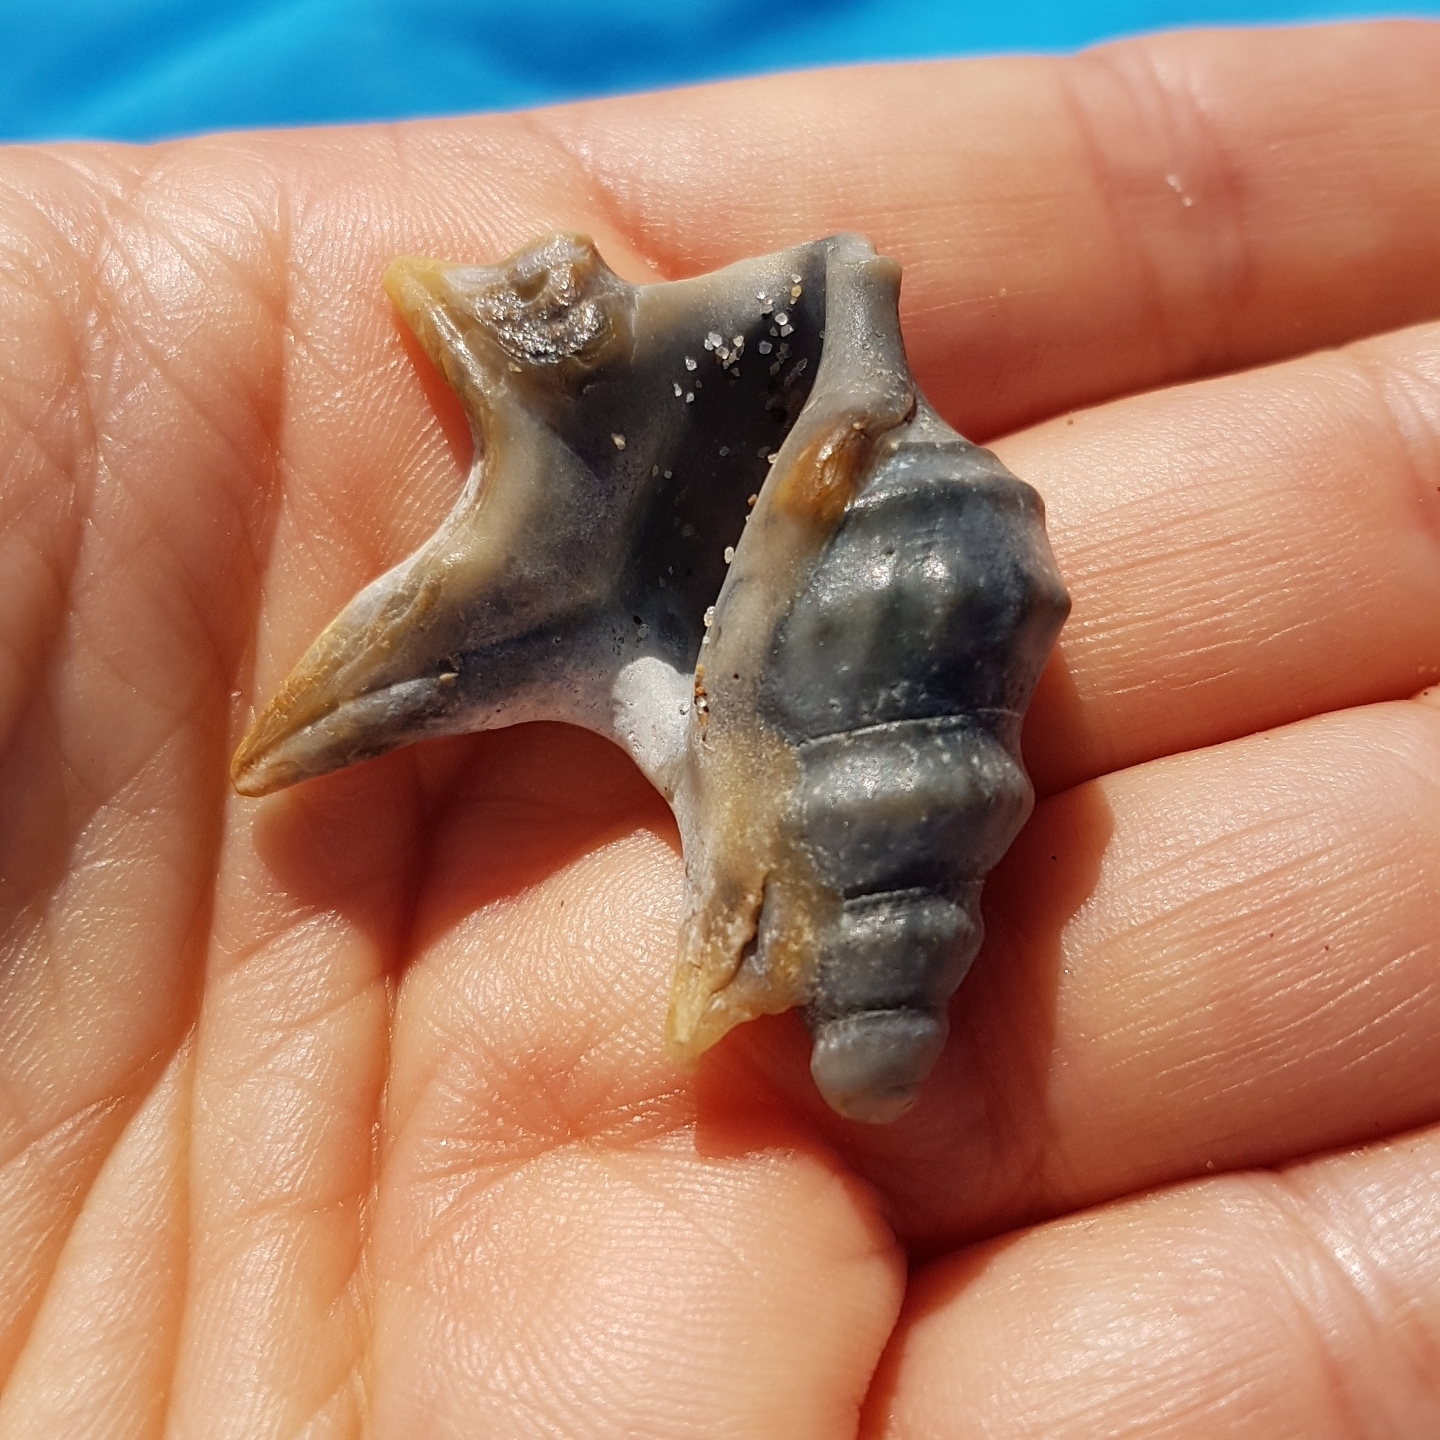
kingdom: Animalia
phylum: Mollusca
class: Gastropoda
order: Littorinimorpha
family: Aporrhaidae
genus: Aporrhais
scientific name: Aporrhais pespelecani
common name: Common pelican’s foot
